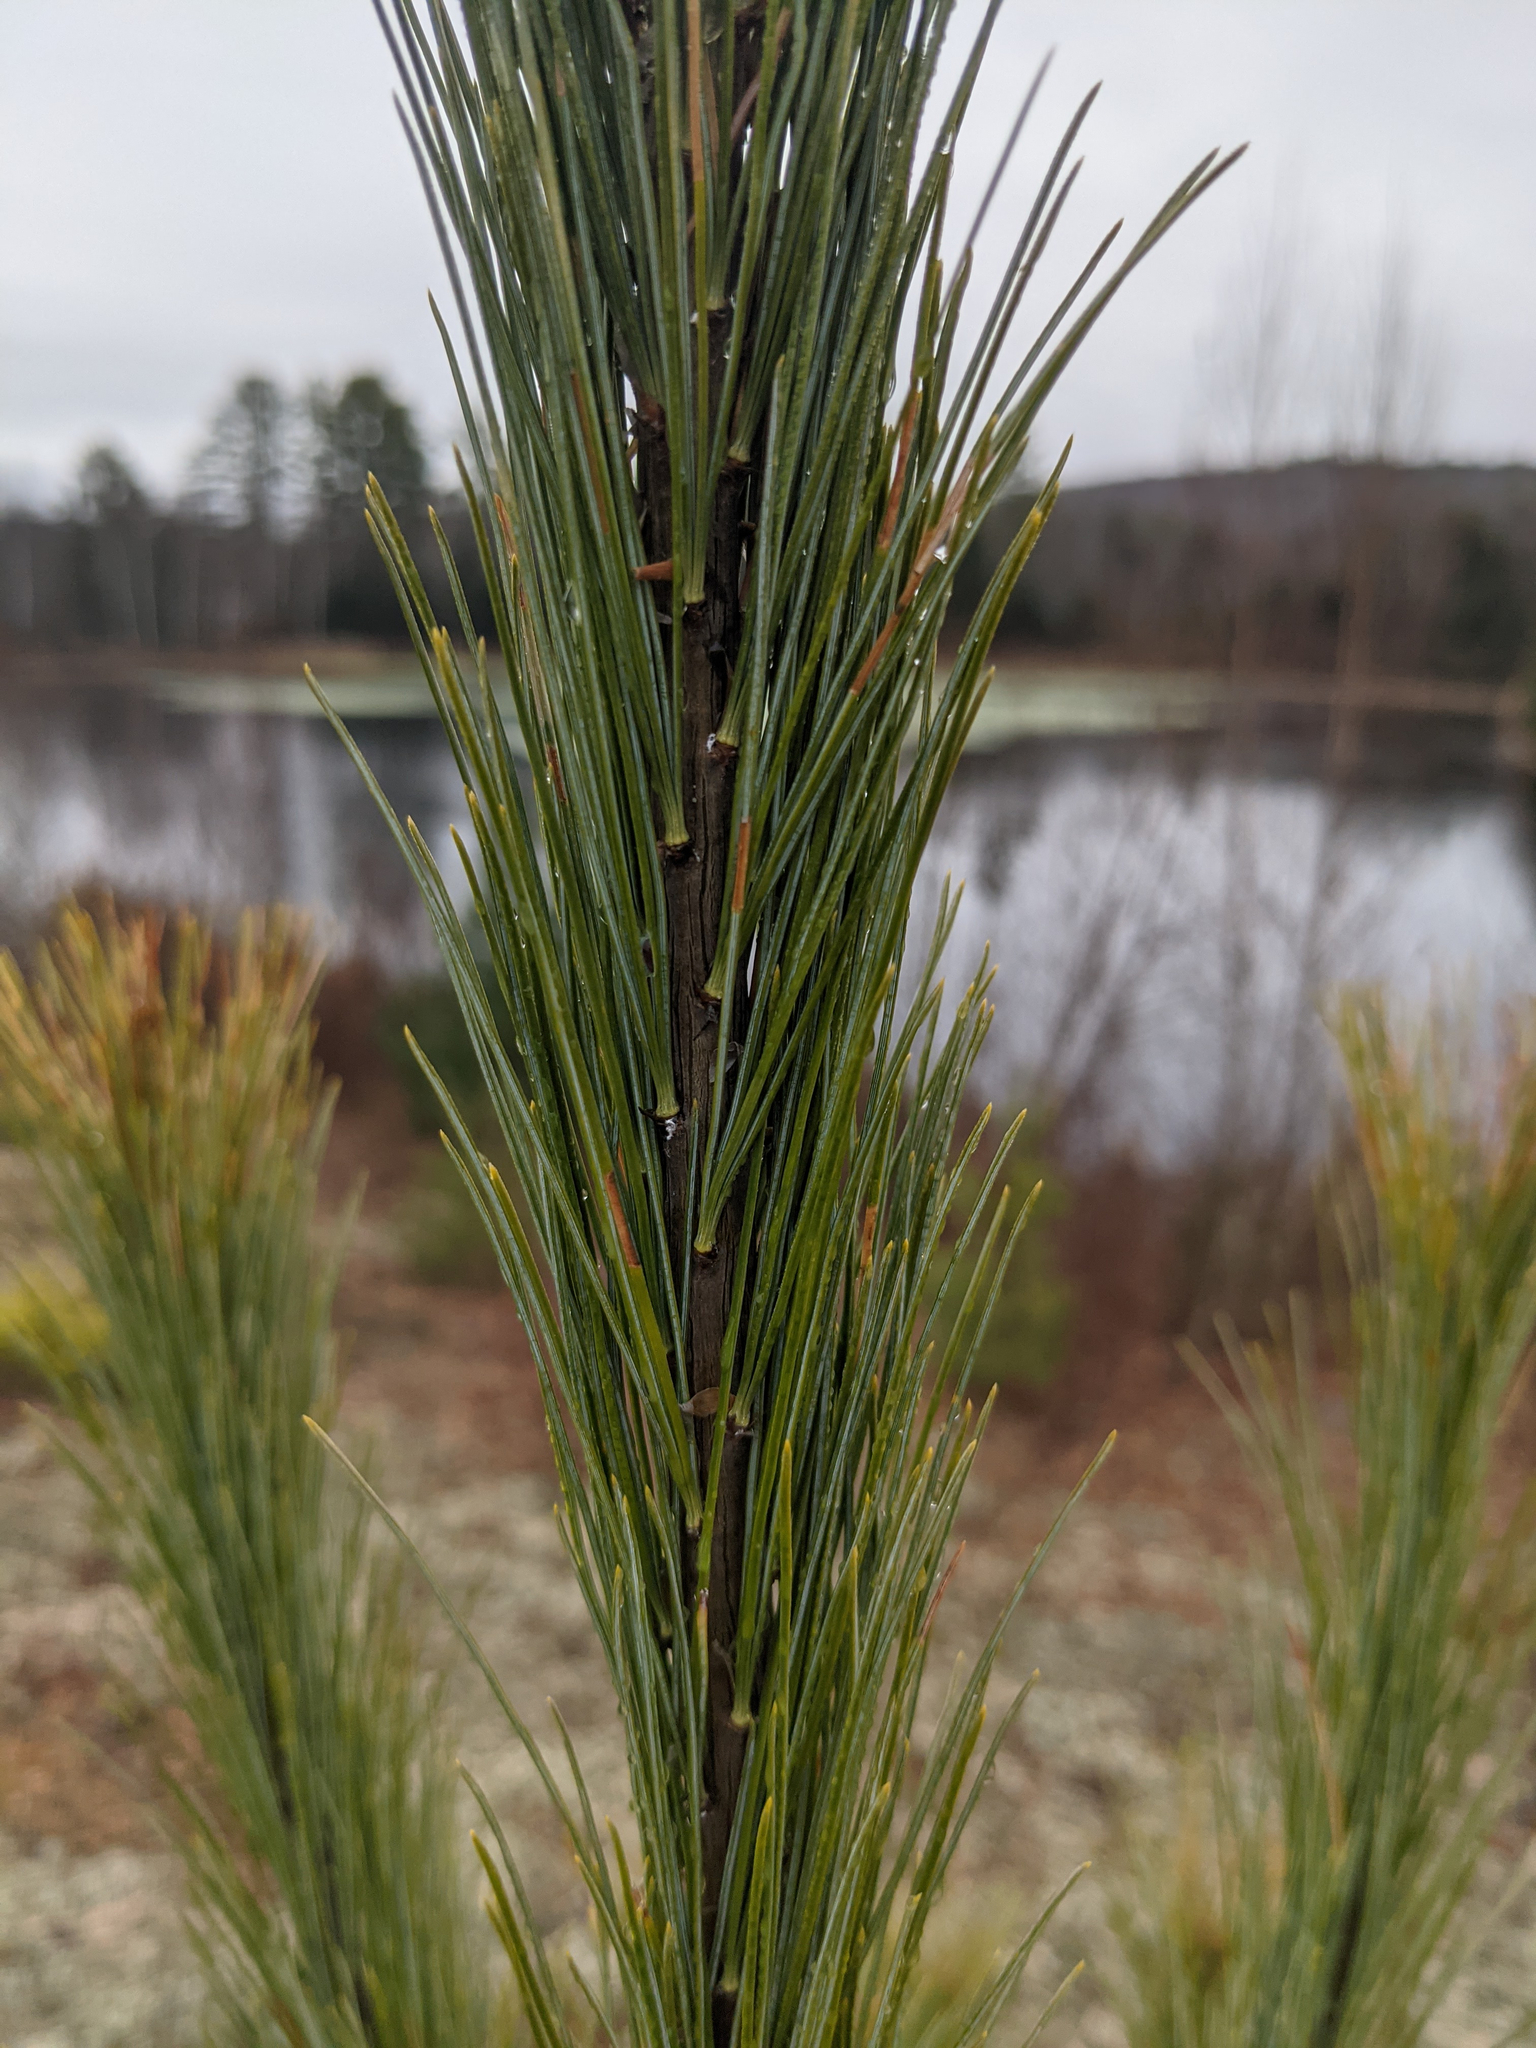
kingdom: Plantae
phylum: Tracheophyta
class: Pinopsida
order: Pinales
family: Pinaceae
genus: Pinus
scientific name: Pinus strobus
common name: Weymouth pine
